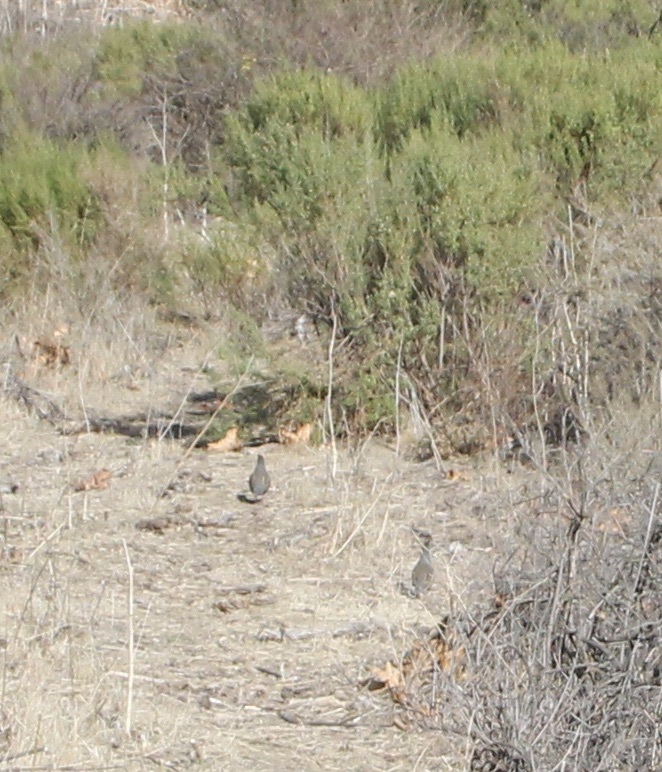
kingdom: Animalia
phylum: Chordata
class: Aves
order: Galliformes
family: Odontophoridae
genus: Callipepla
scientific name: Callipepla californica
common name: California quail
